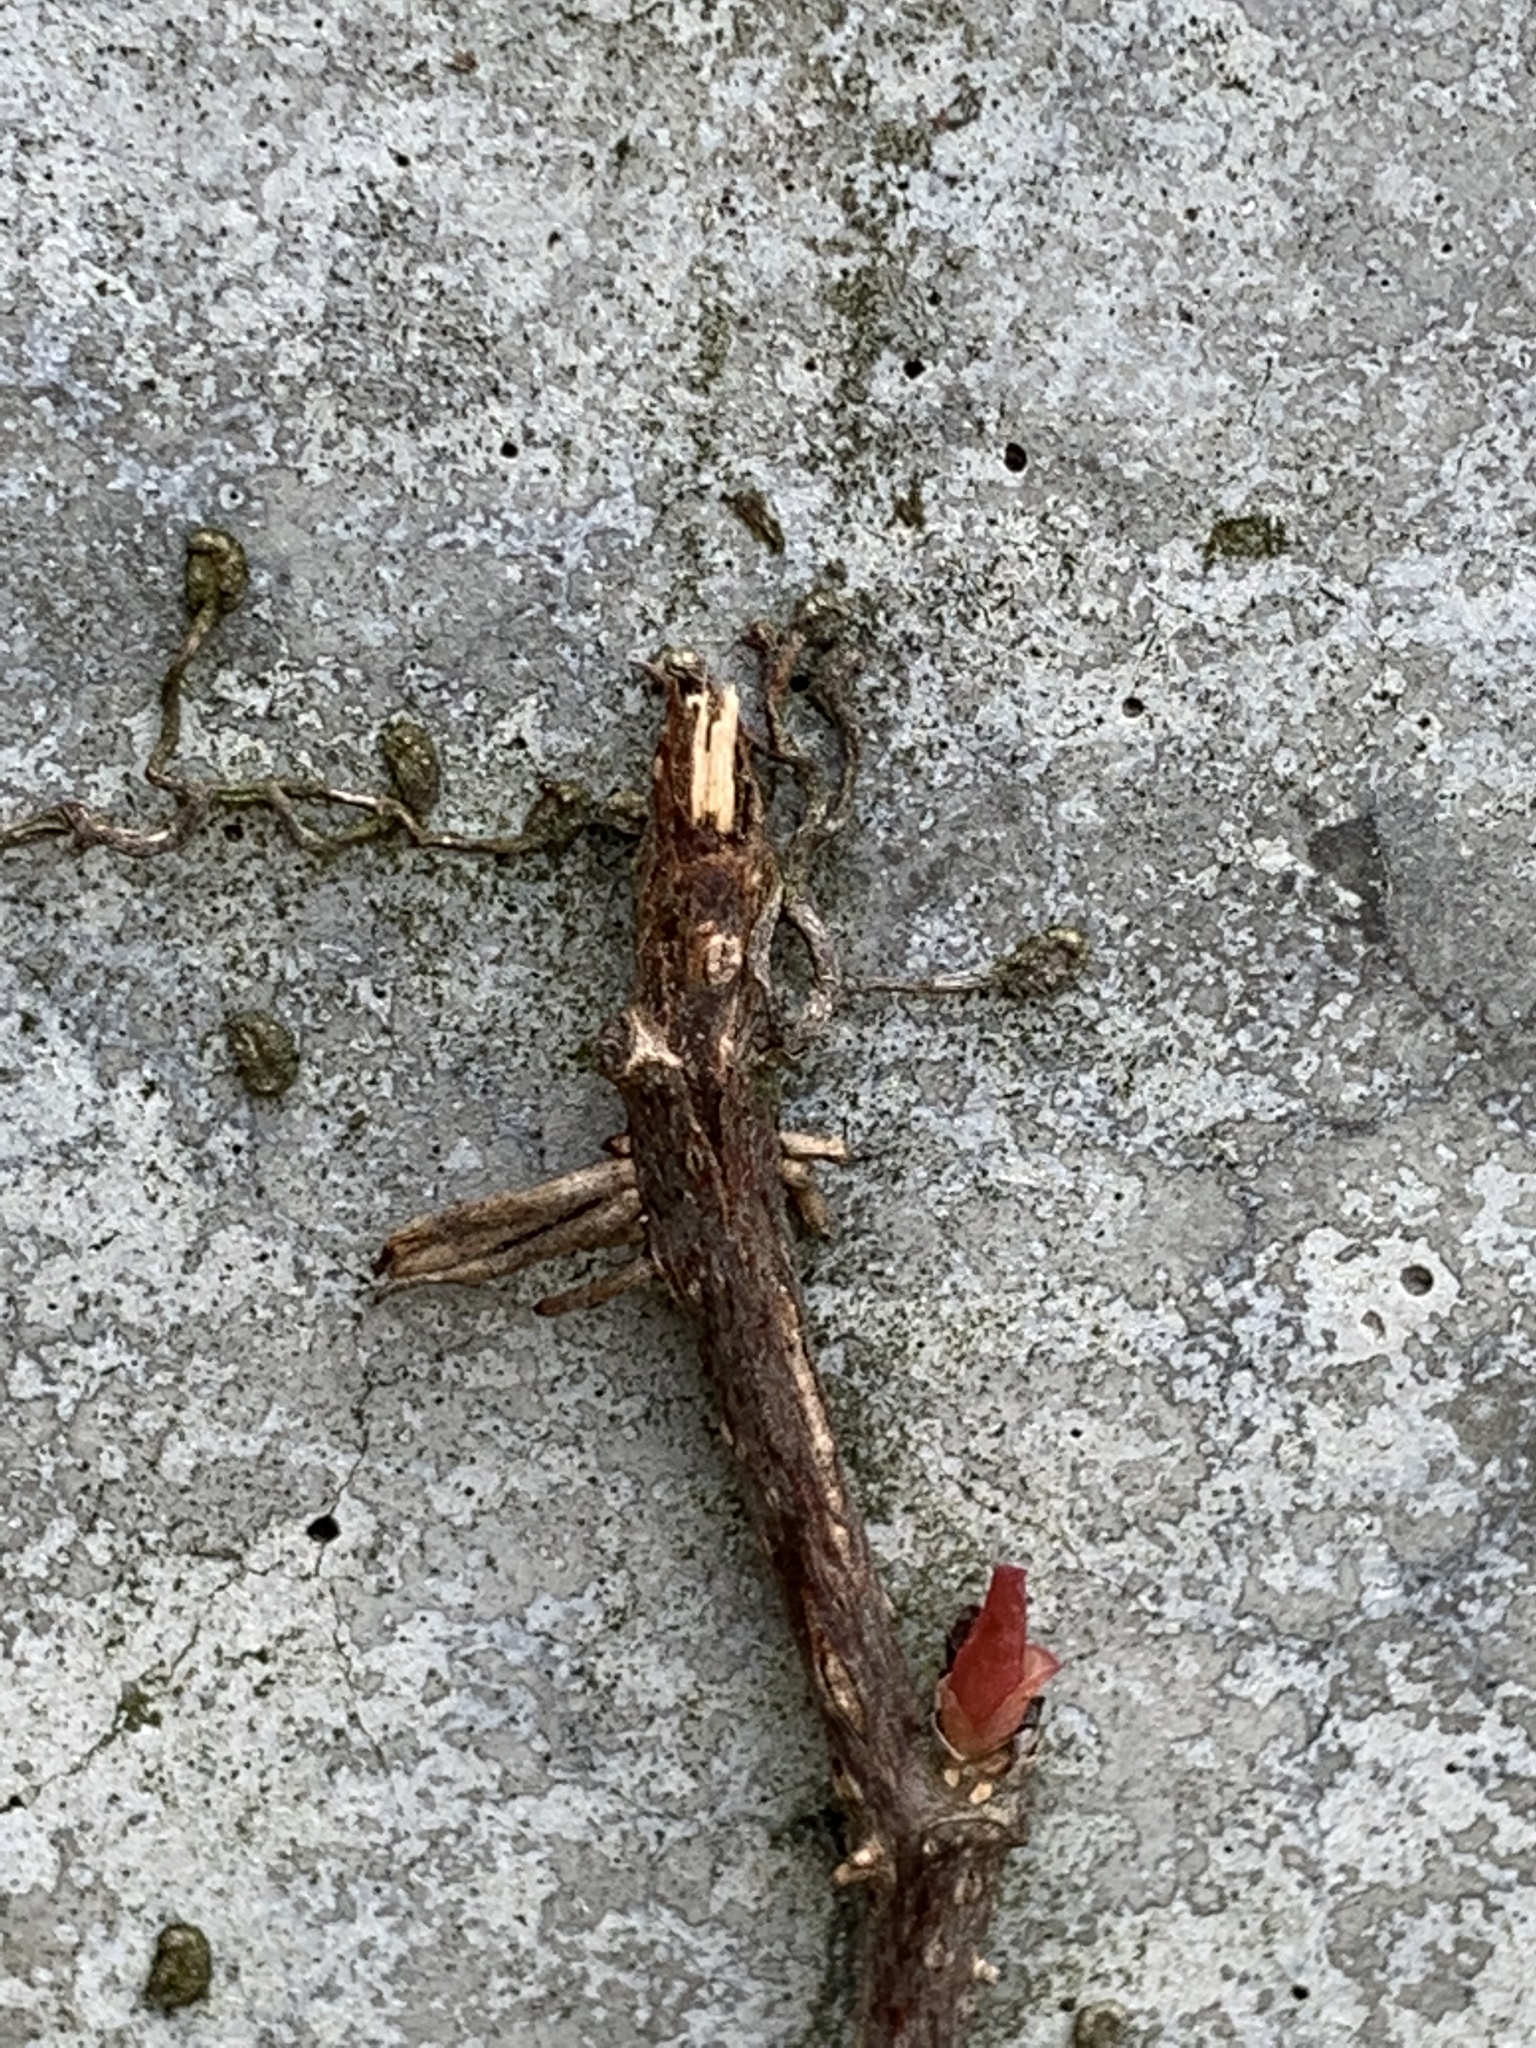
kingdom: Plantae
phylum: Tracheophyta
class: Magnoliopsida
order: Vitales
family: Vitaceae
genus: Parthenocissus
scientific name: Parthenocissus quinquefolia
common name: Virginia-creeper
